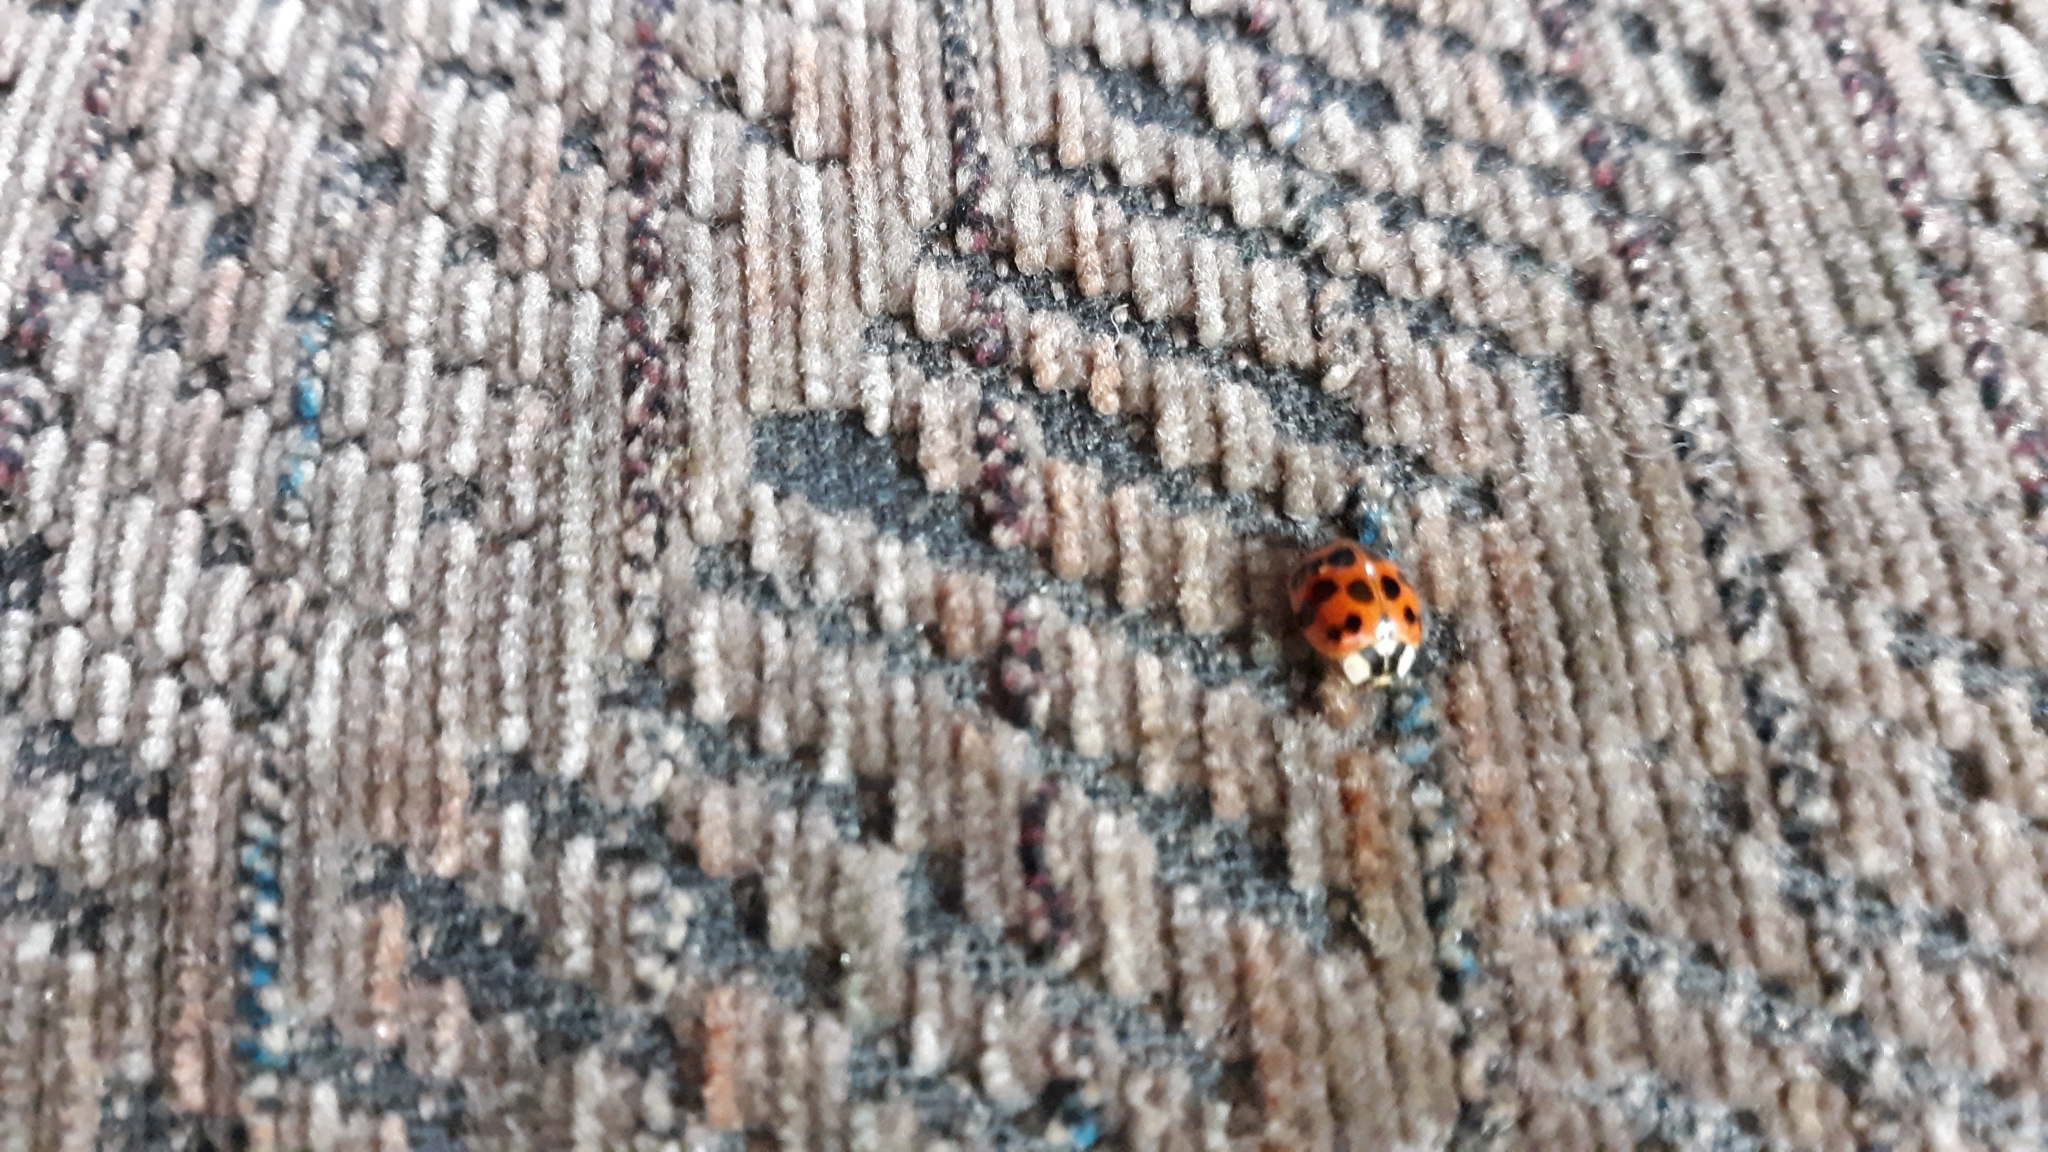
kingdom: Animalia
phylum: Arthropoda
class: Insecta
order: Coleoptera
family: Coccinellidae
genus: Harmonia
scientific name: Harmonia axyridis
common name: Harlequin ladybird
